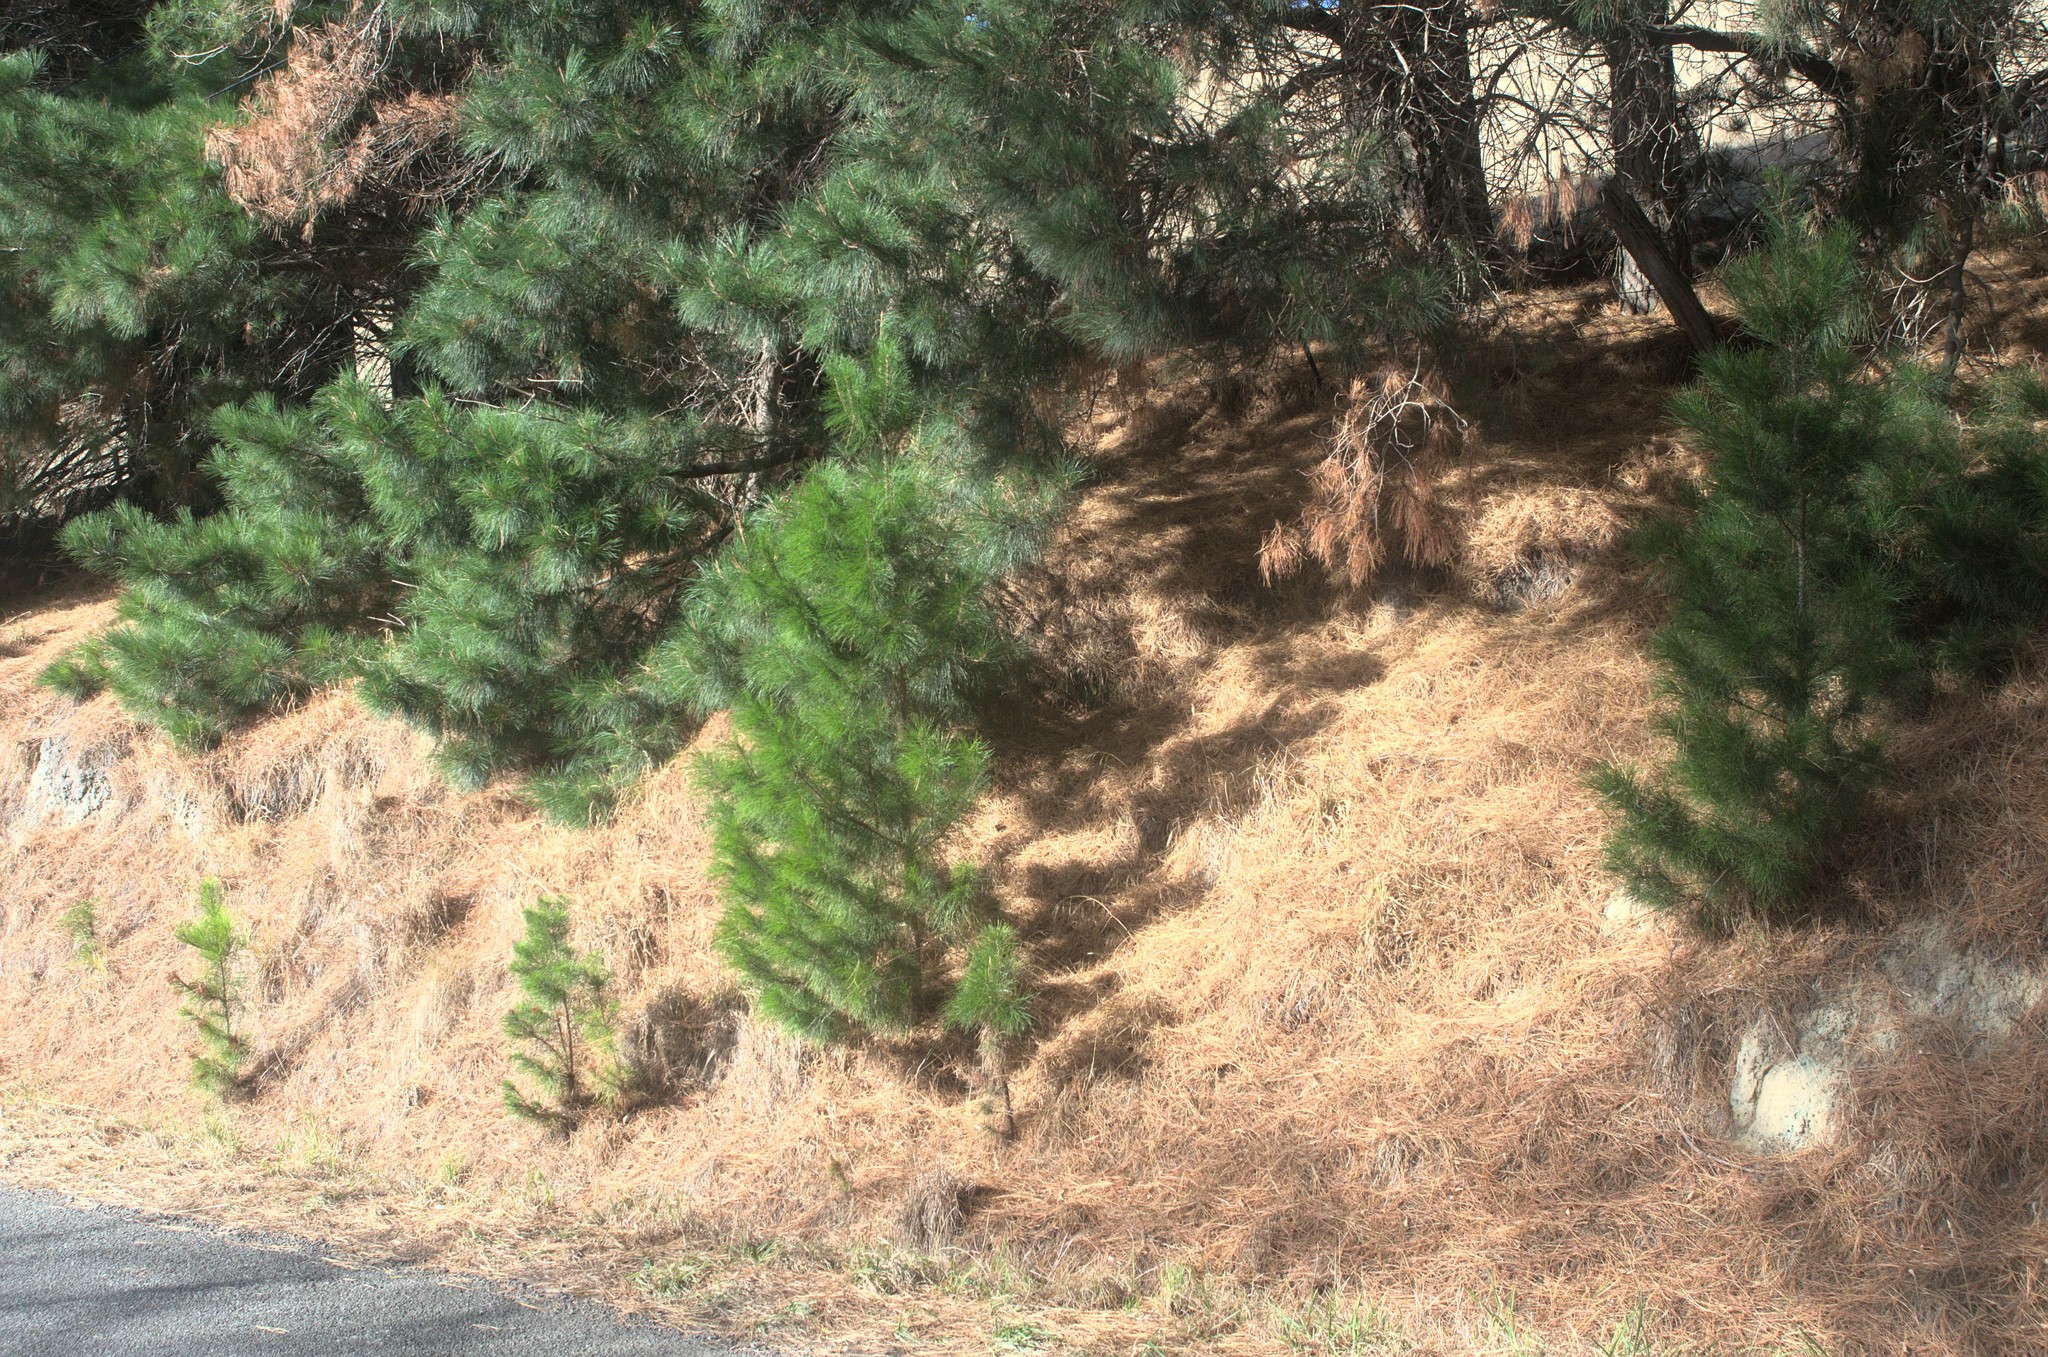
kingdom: Plantae
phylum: Tracheophyta
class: Pinopsida
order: Pinales
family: Pinaceae
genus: Pinus
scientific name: Pinus radiata
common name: Monterey pine
